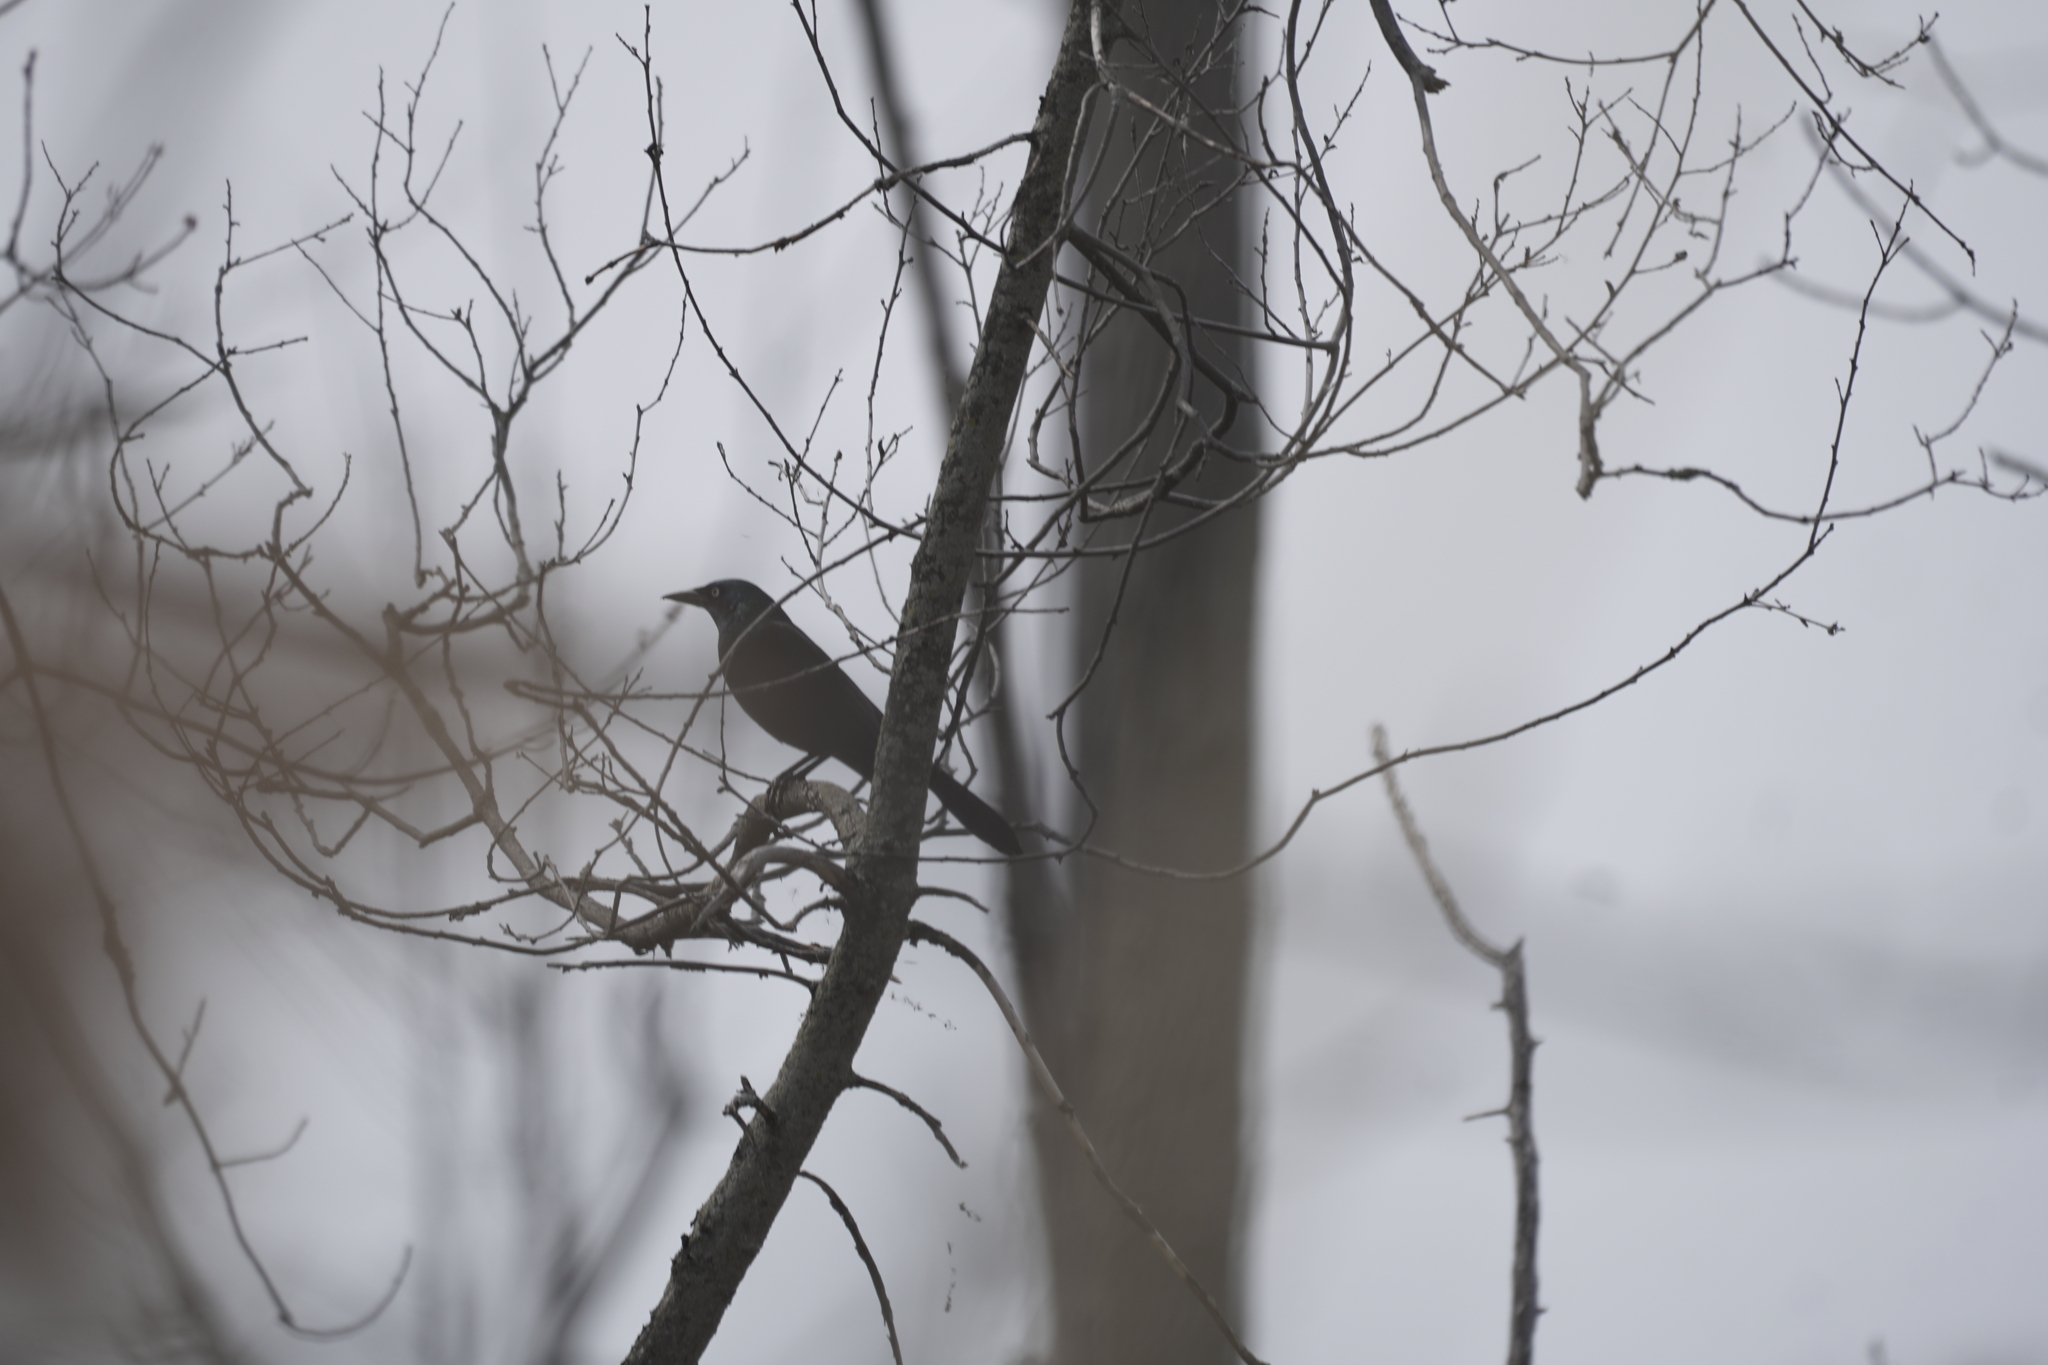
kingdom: Animalia
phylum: Chordata
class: Aves
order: Passeriformes
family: Icteridae
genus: Euphagus
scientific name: Euphagus carolinus
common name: Rusty blackbird
